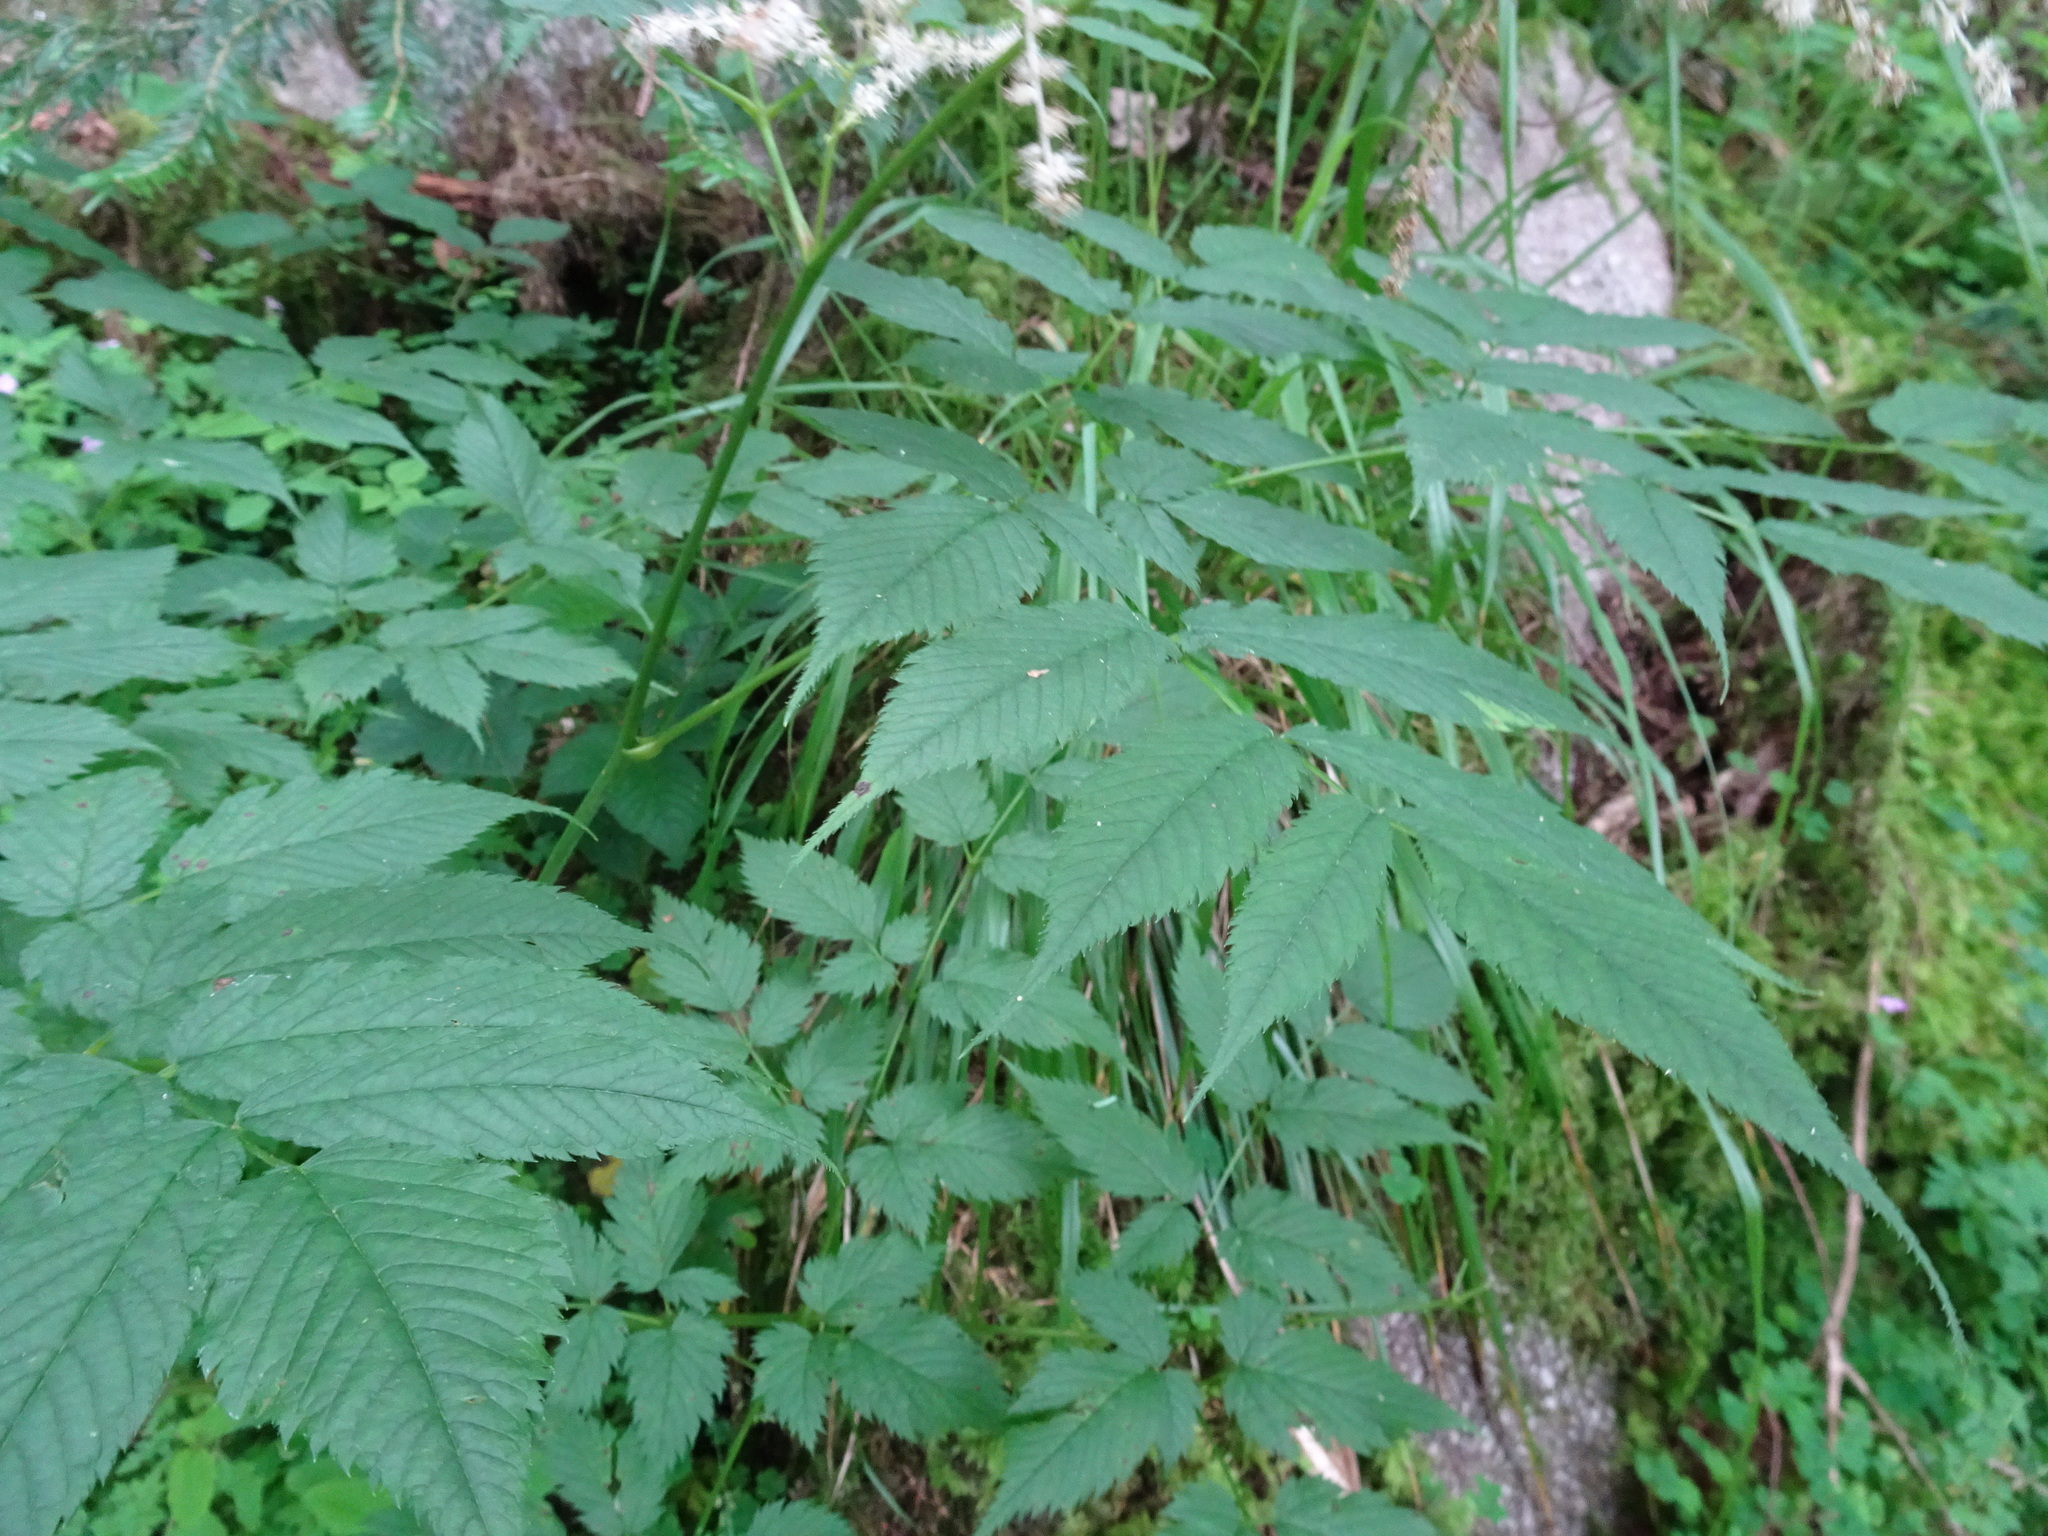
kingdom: Plantae
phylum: Tracheophyta
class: Magnoliopsida
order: Rosales
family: Rosaceae
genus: Aruncus
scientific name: Aruncus dioicus
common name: Buck's-beard
